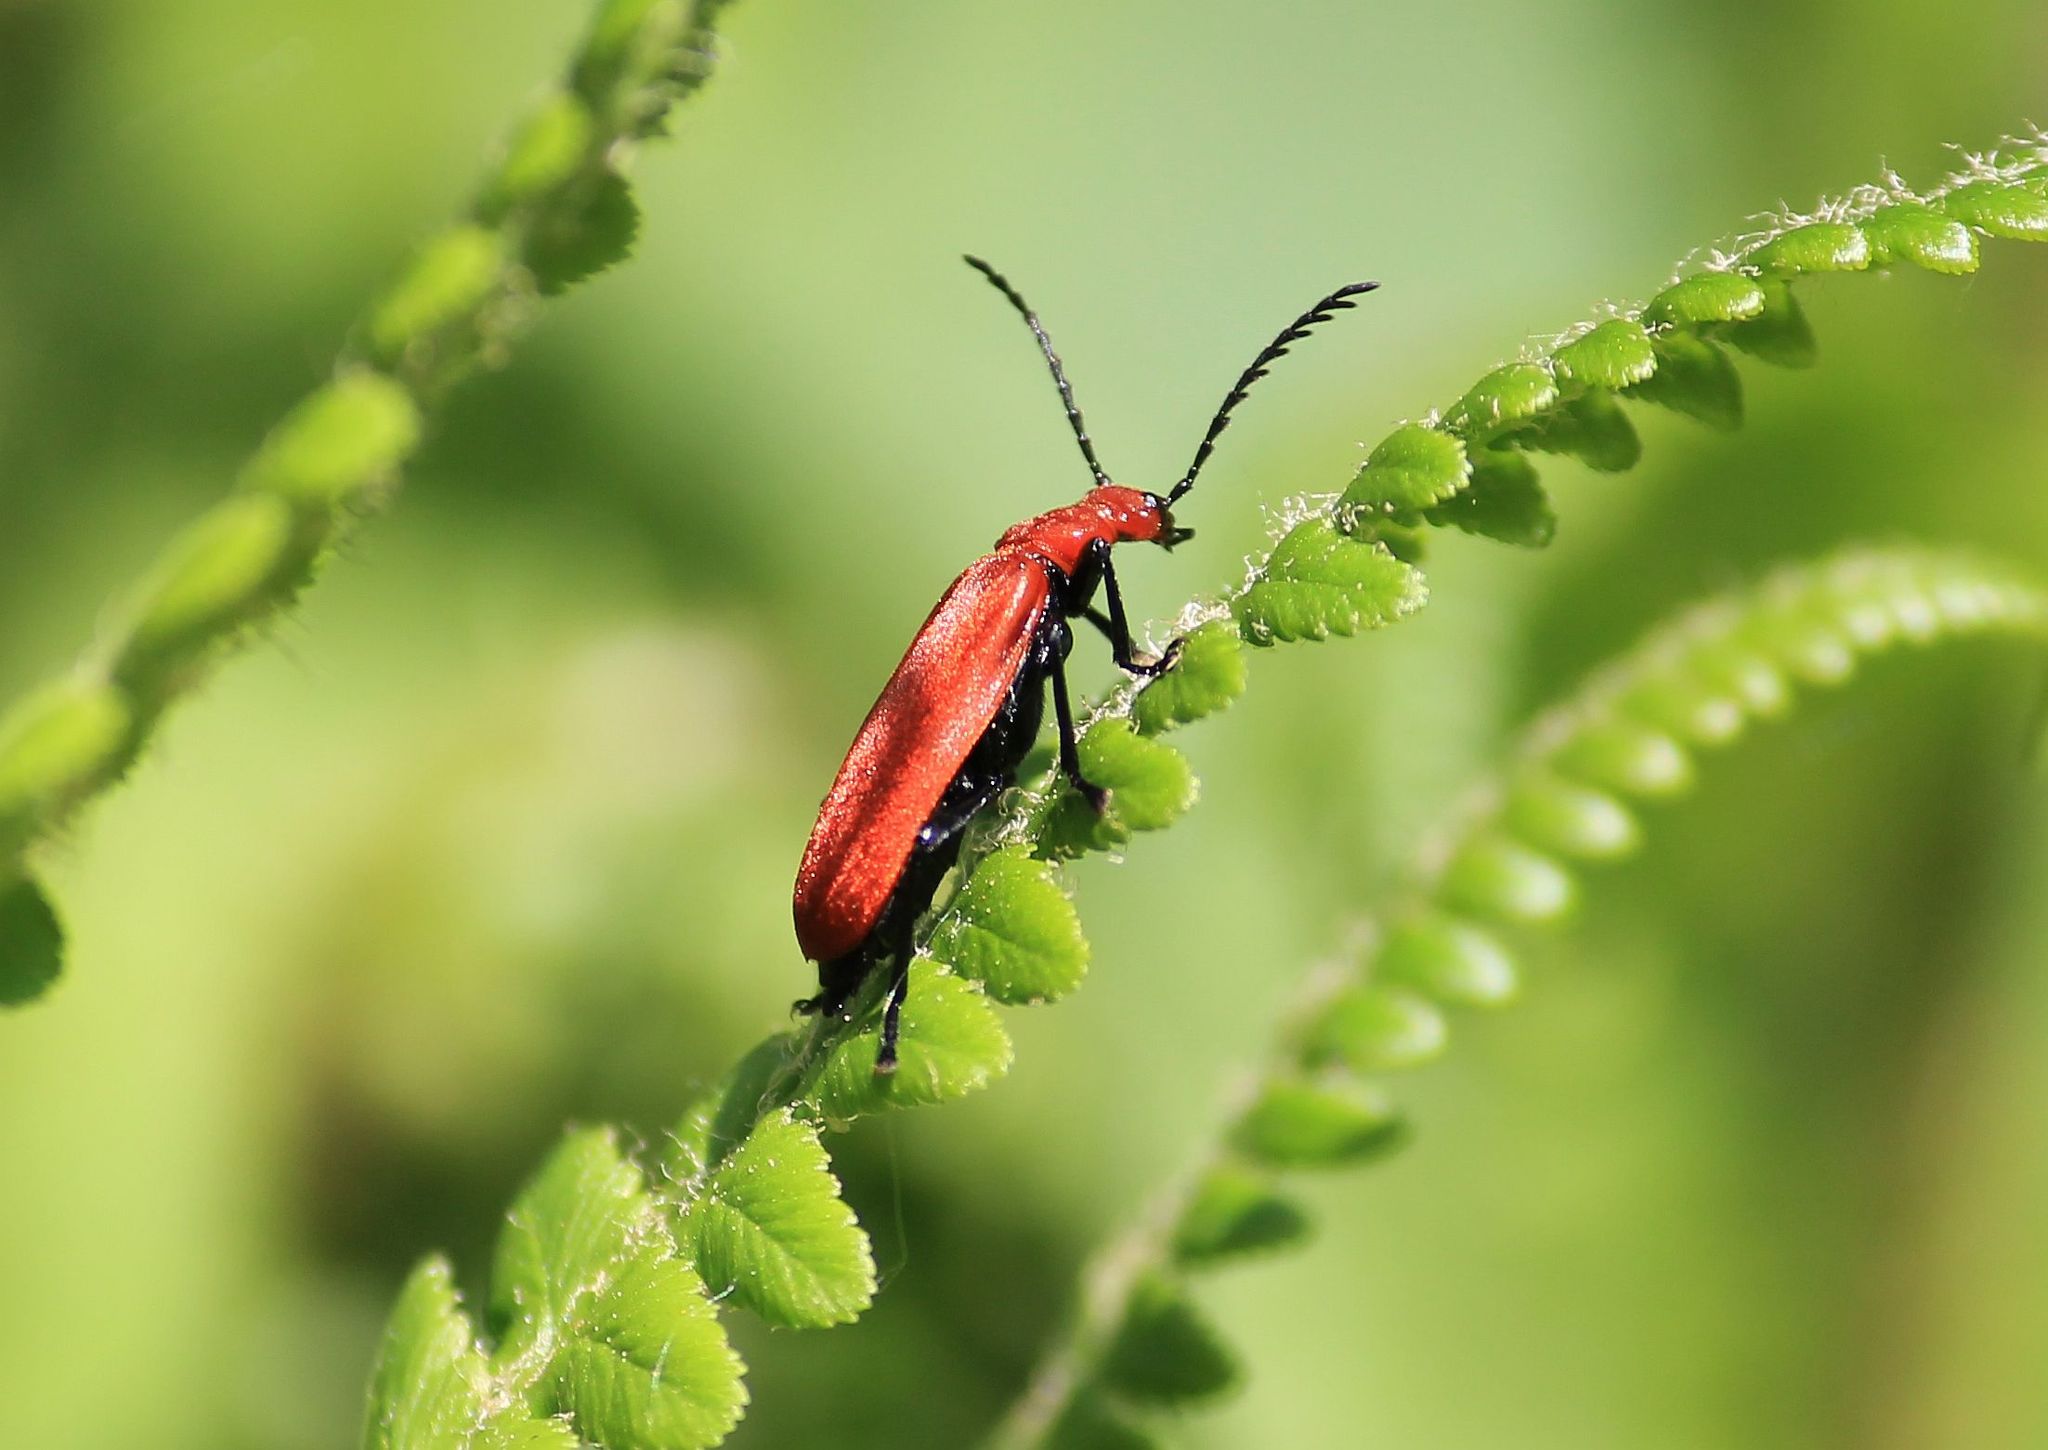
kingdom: Animalia
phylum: Arthropoda
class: Insecta
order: Coleoptera
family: Pyrochroidae
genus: Pyrochroa
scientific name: Pyrochroa serraticornis
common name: Red-headed cardinal beetle
